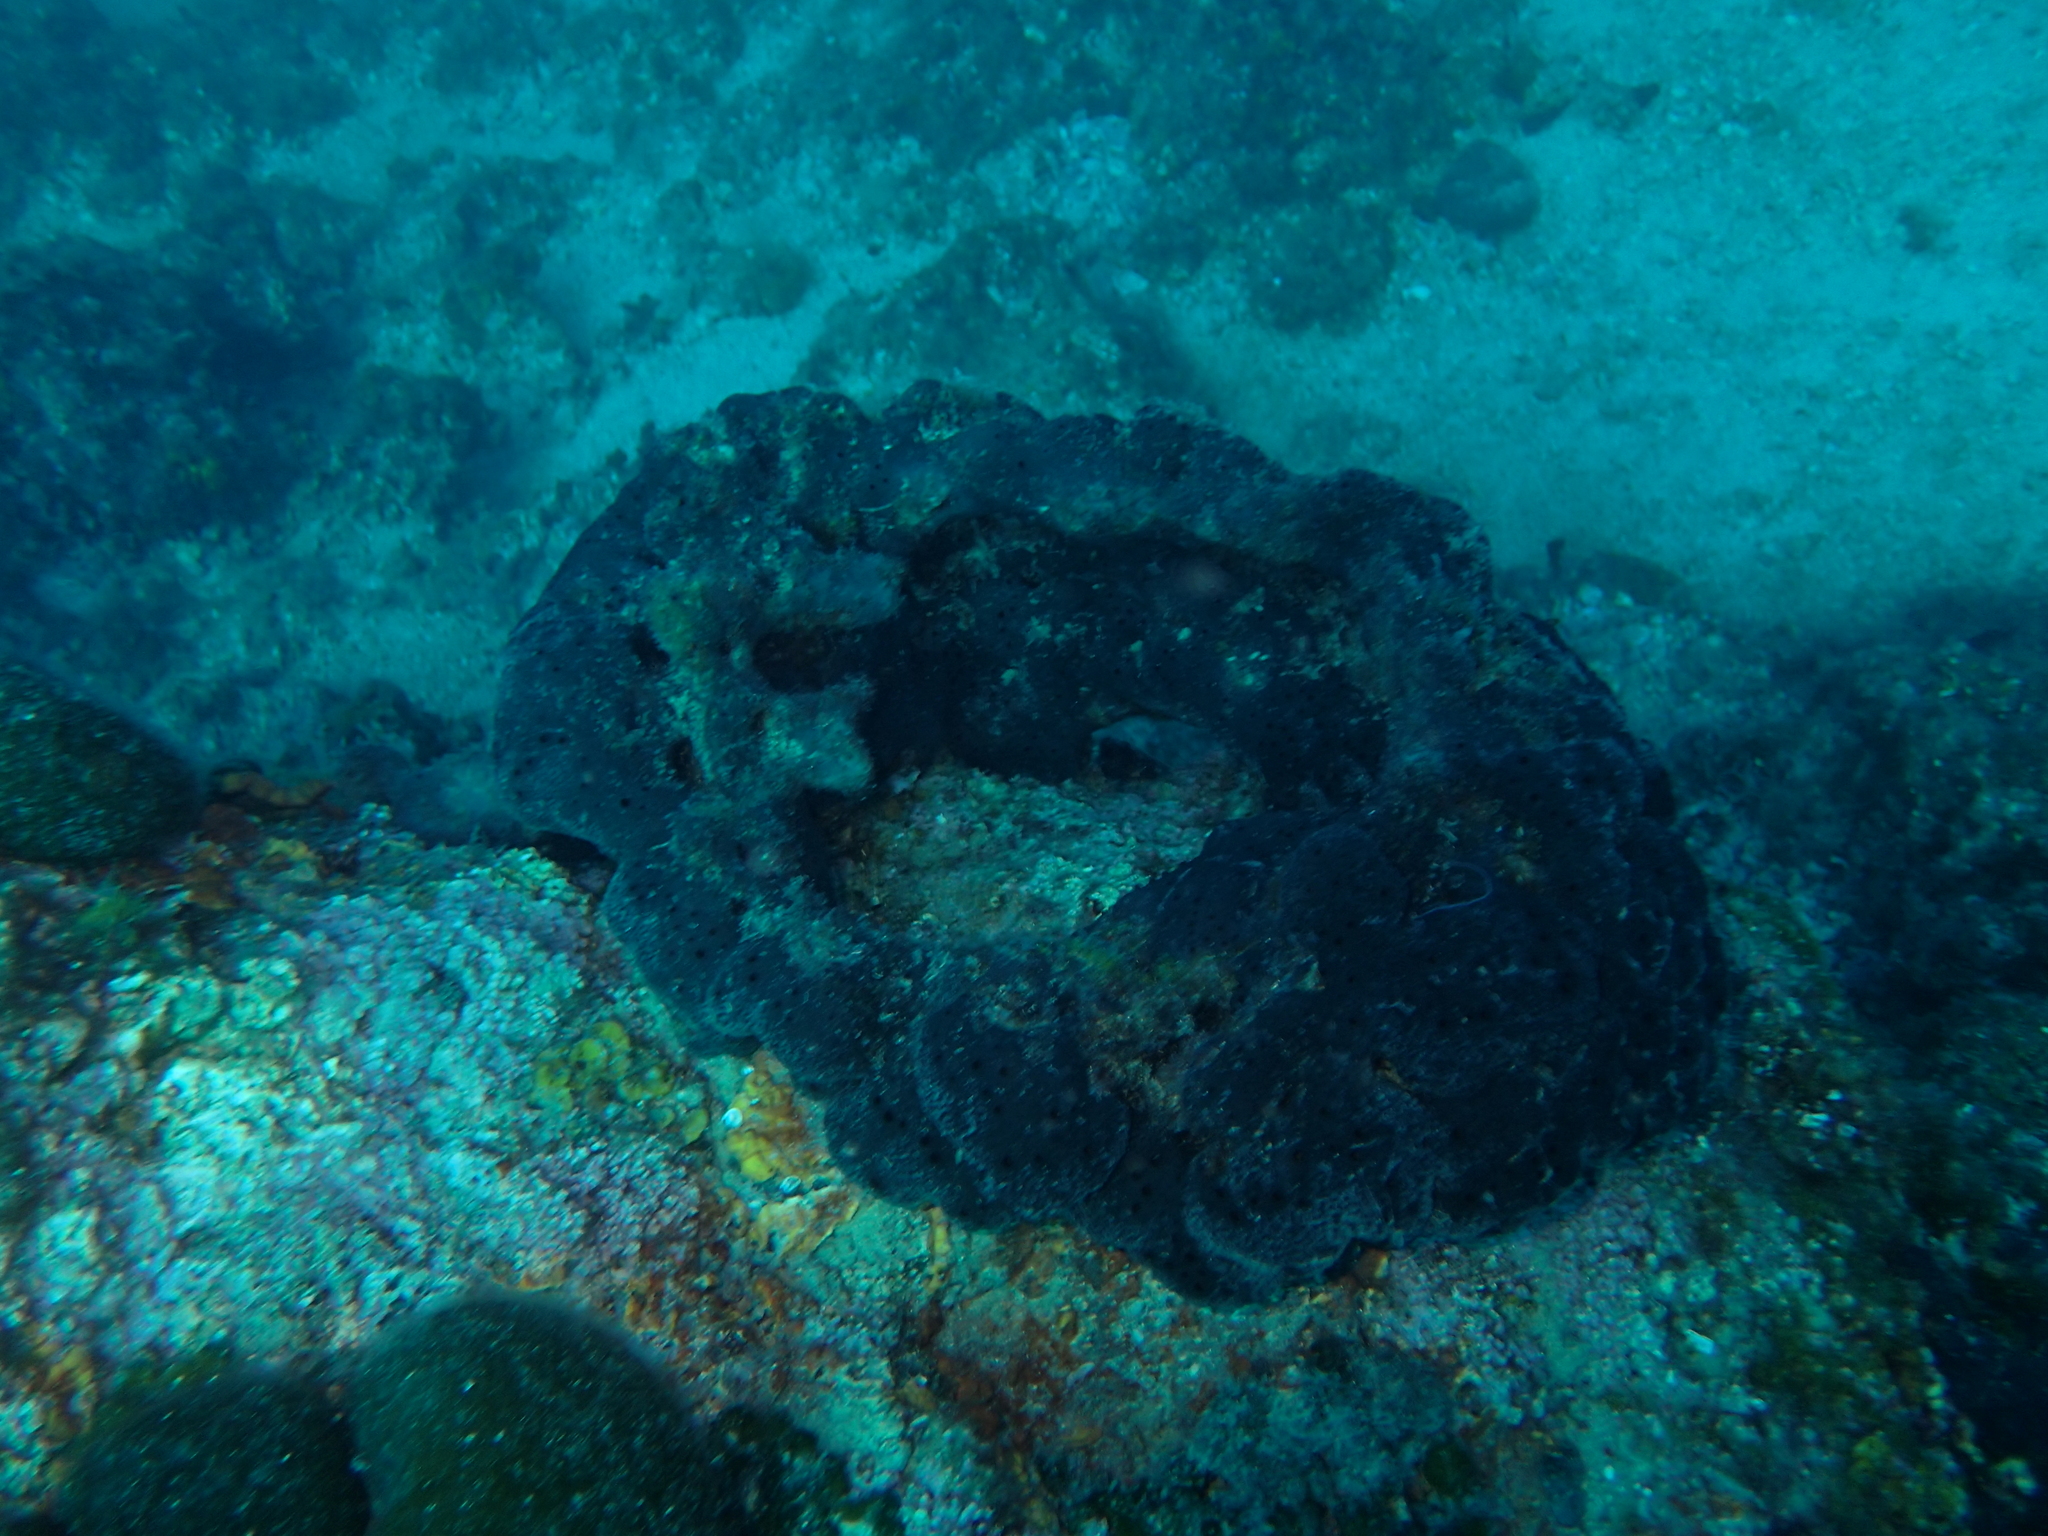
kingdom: Animalia
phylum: Porifera
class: Demospongiae
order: Dictyoceratida
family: Irciniidae
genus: Sarcotragus
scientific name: Sarcotragus spinosulus
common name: Black leather sponge
